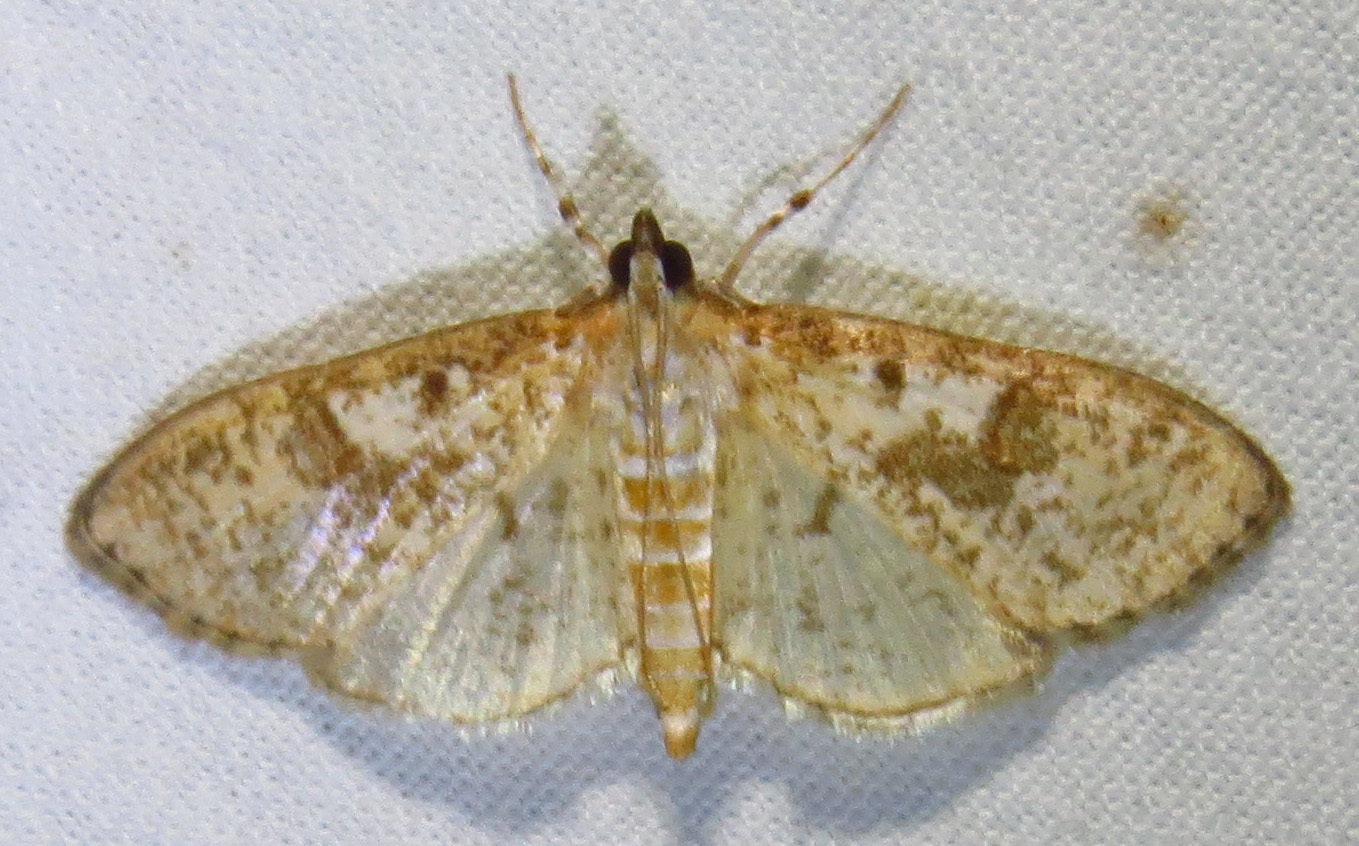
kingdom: Animalia
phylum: Arthropoda
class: Insecta
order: Lepidoptera
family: Crambidae
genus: Palpita
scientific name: Palpita freemanalis
